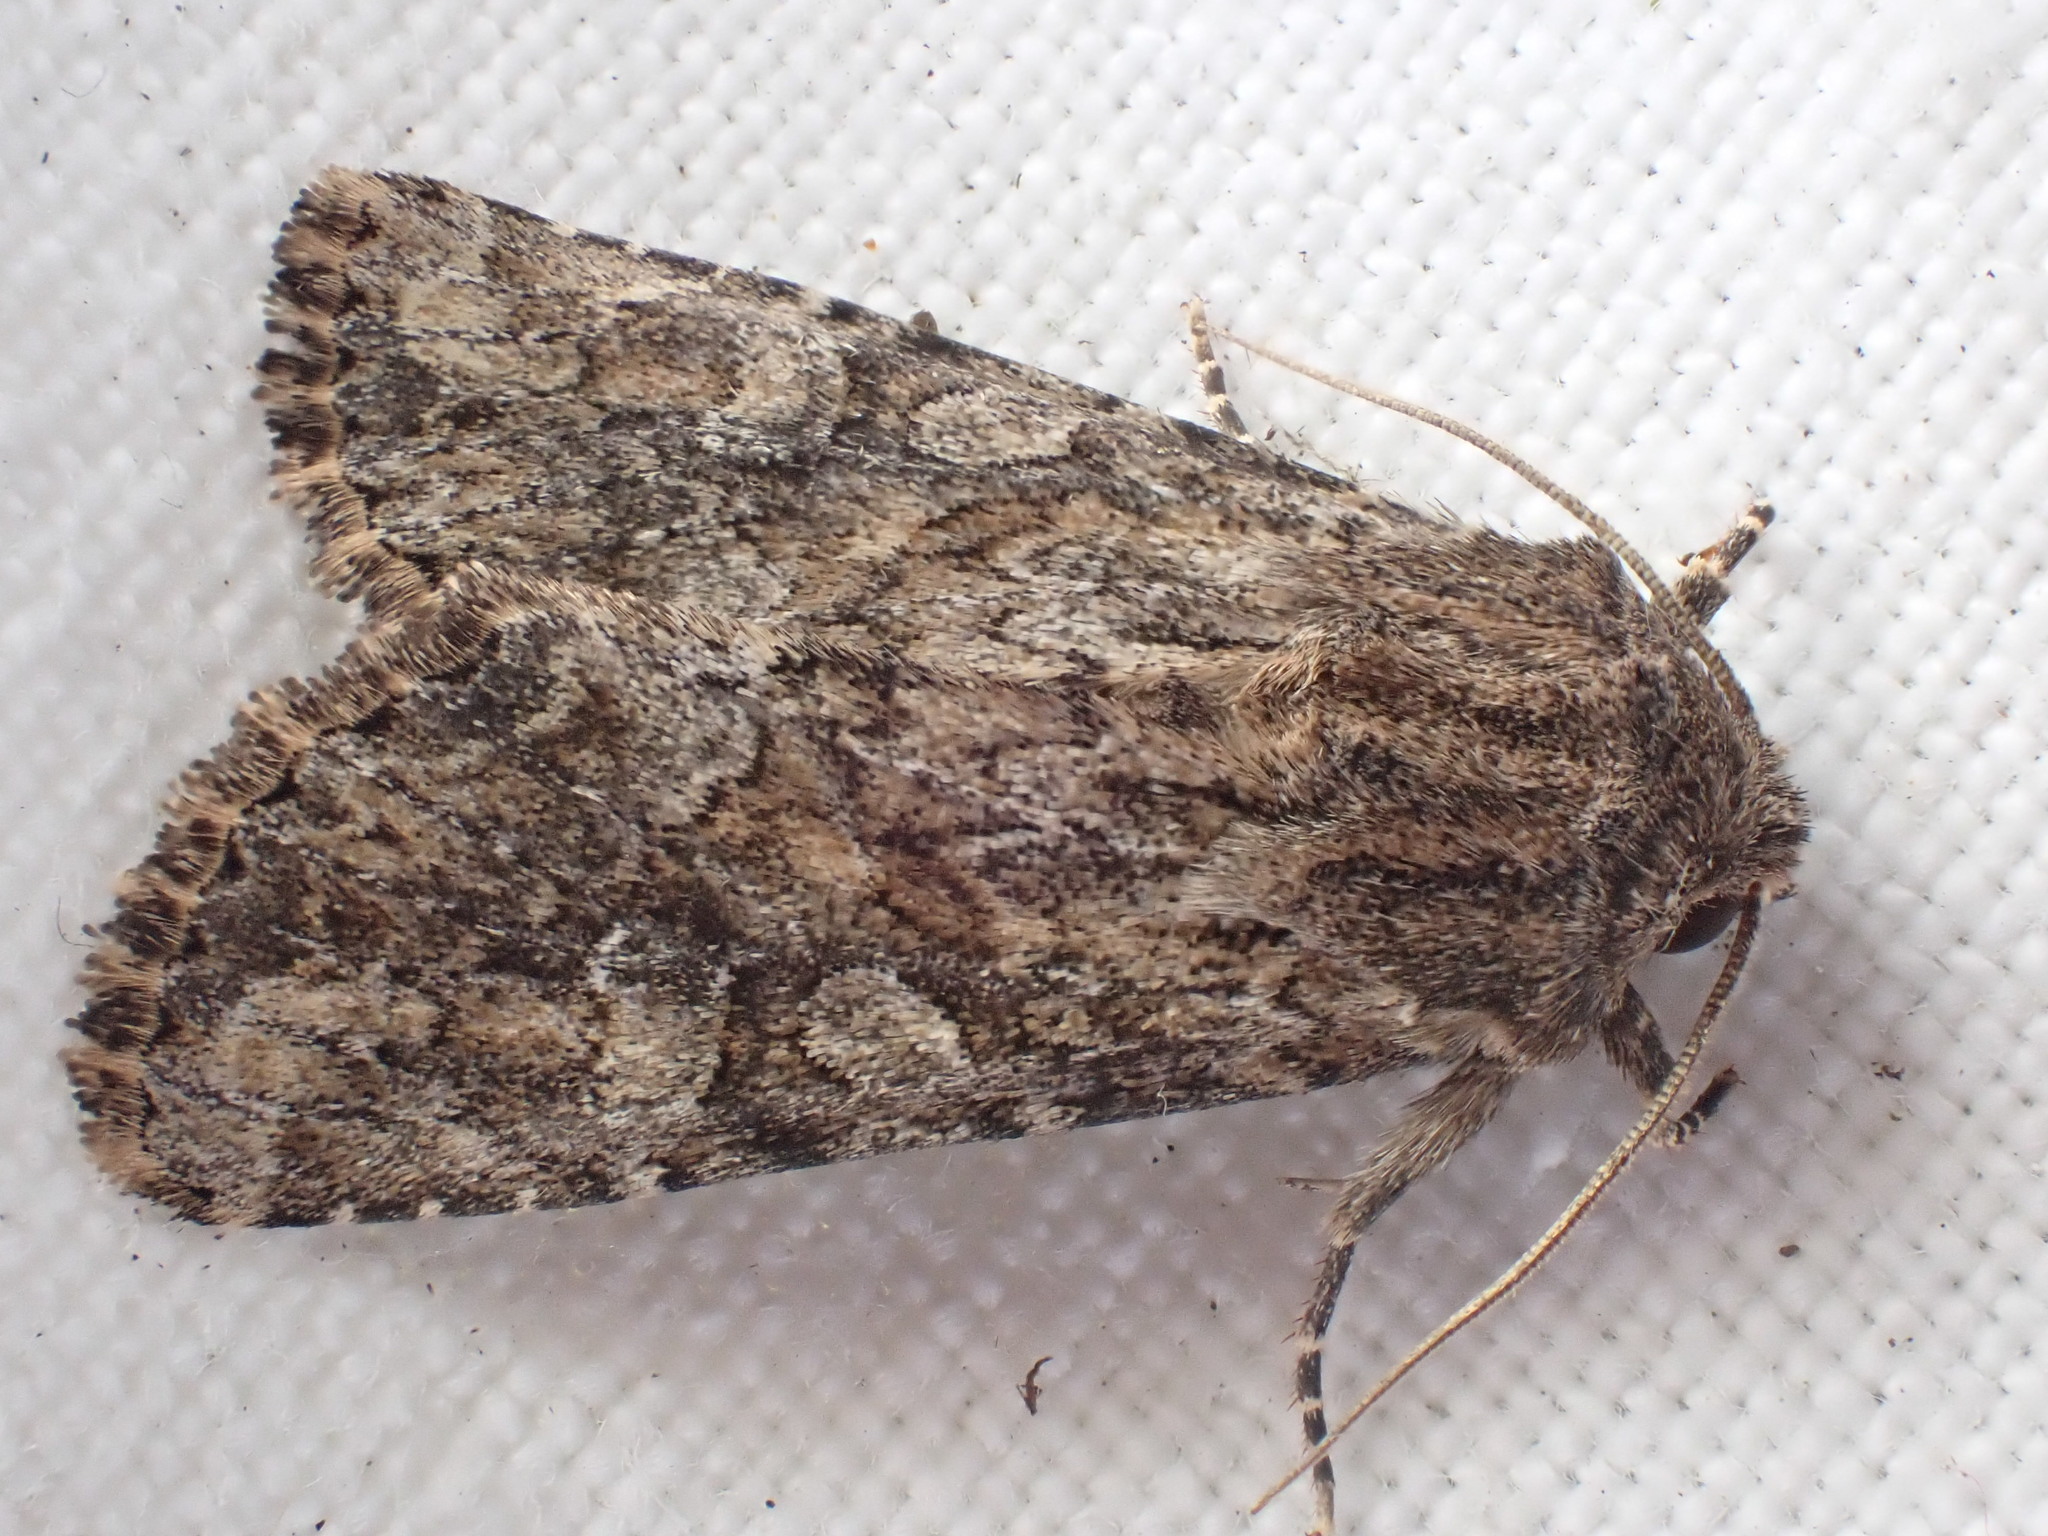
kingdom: Animalia
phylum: Arthropoda
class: Insecta
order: Lepidoptera
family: Noctuidae
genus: Apamea
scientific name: Apamea anceps
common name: Large nutmeg
